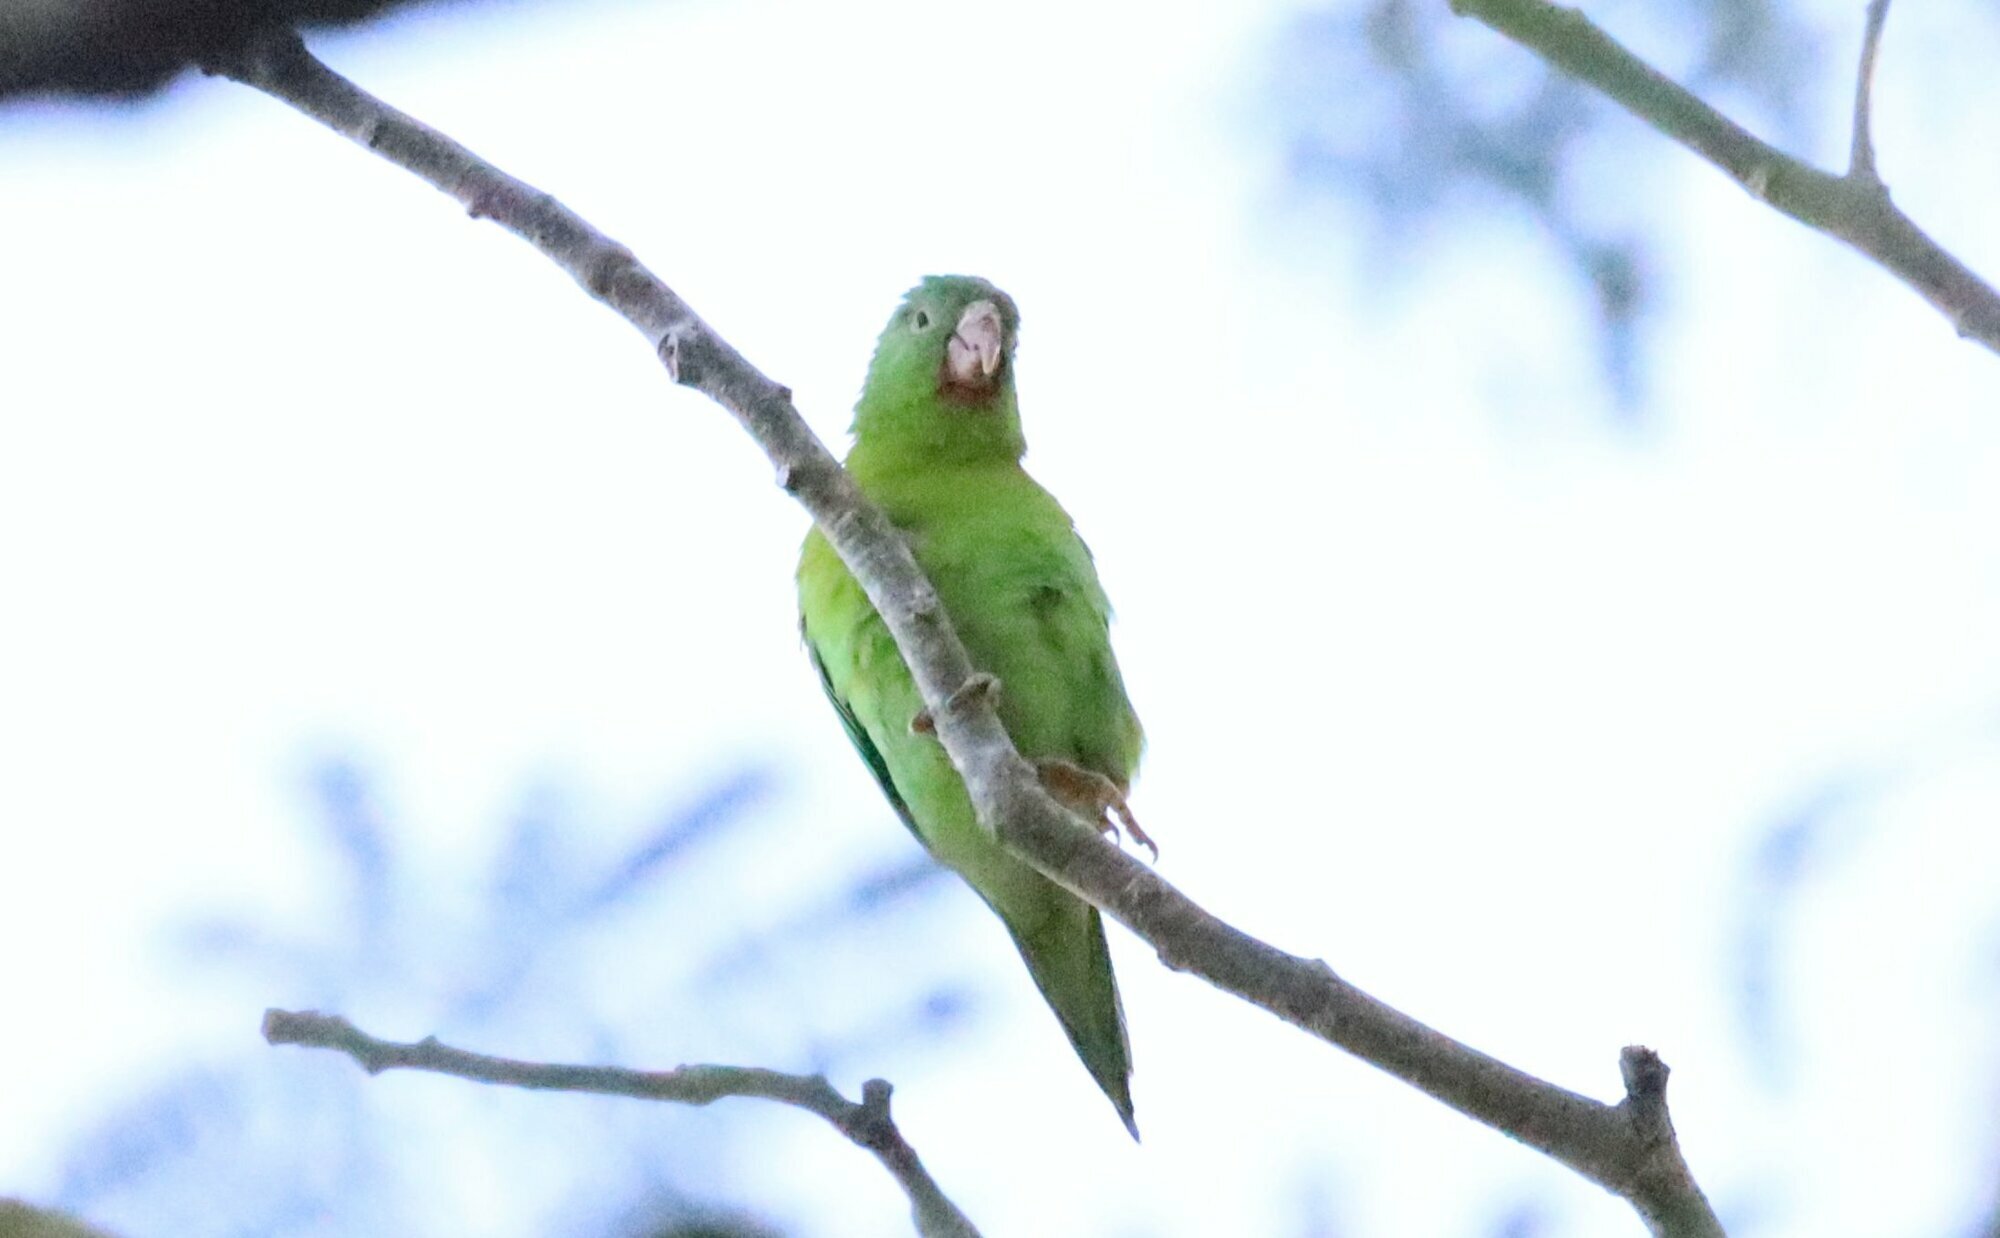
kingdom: Animalia
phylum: Chordata
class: Aves
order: Psittaciformes
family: Psittacidae
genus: Brotogeris
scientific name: Brotogeris jugularis
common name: Orange-chinned parakeet
